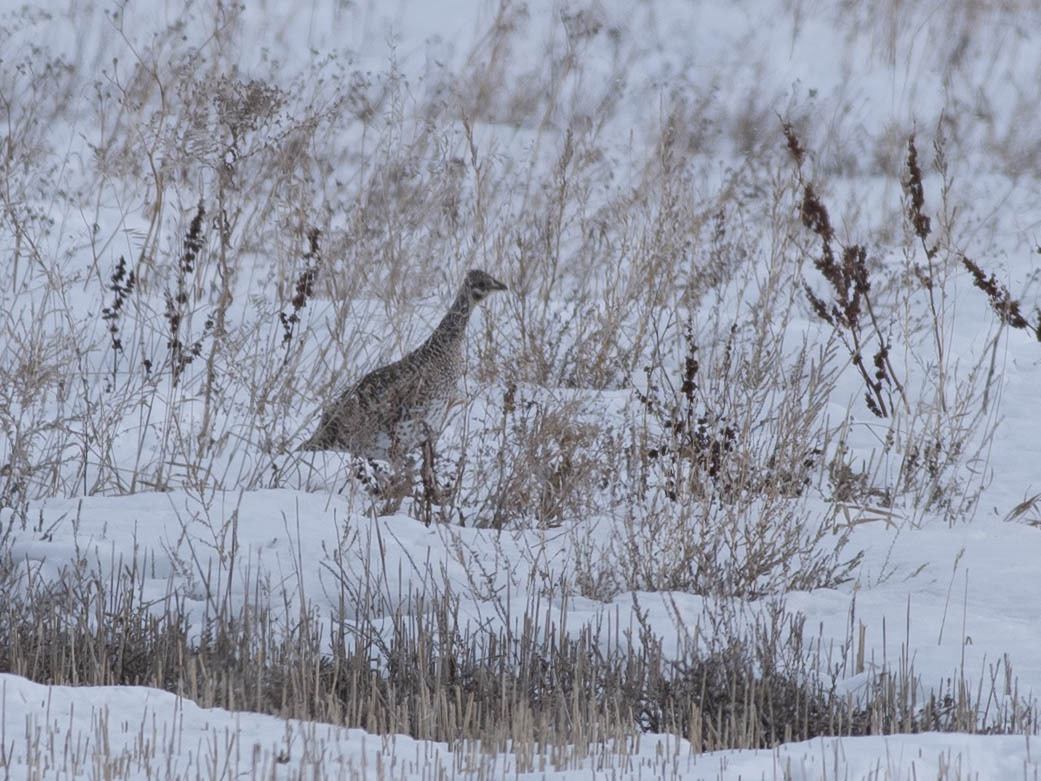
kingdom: Animalia
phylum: Chordata
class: Aves
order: Galliformes
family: Phasianidae
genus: Tympanuchus
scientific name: Tympanuchus phasianellus
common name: Sharp-tailed grouse
